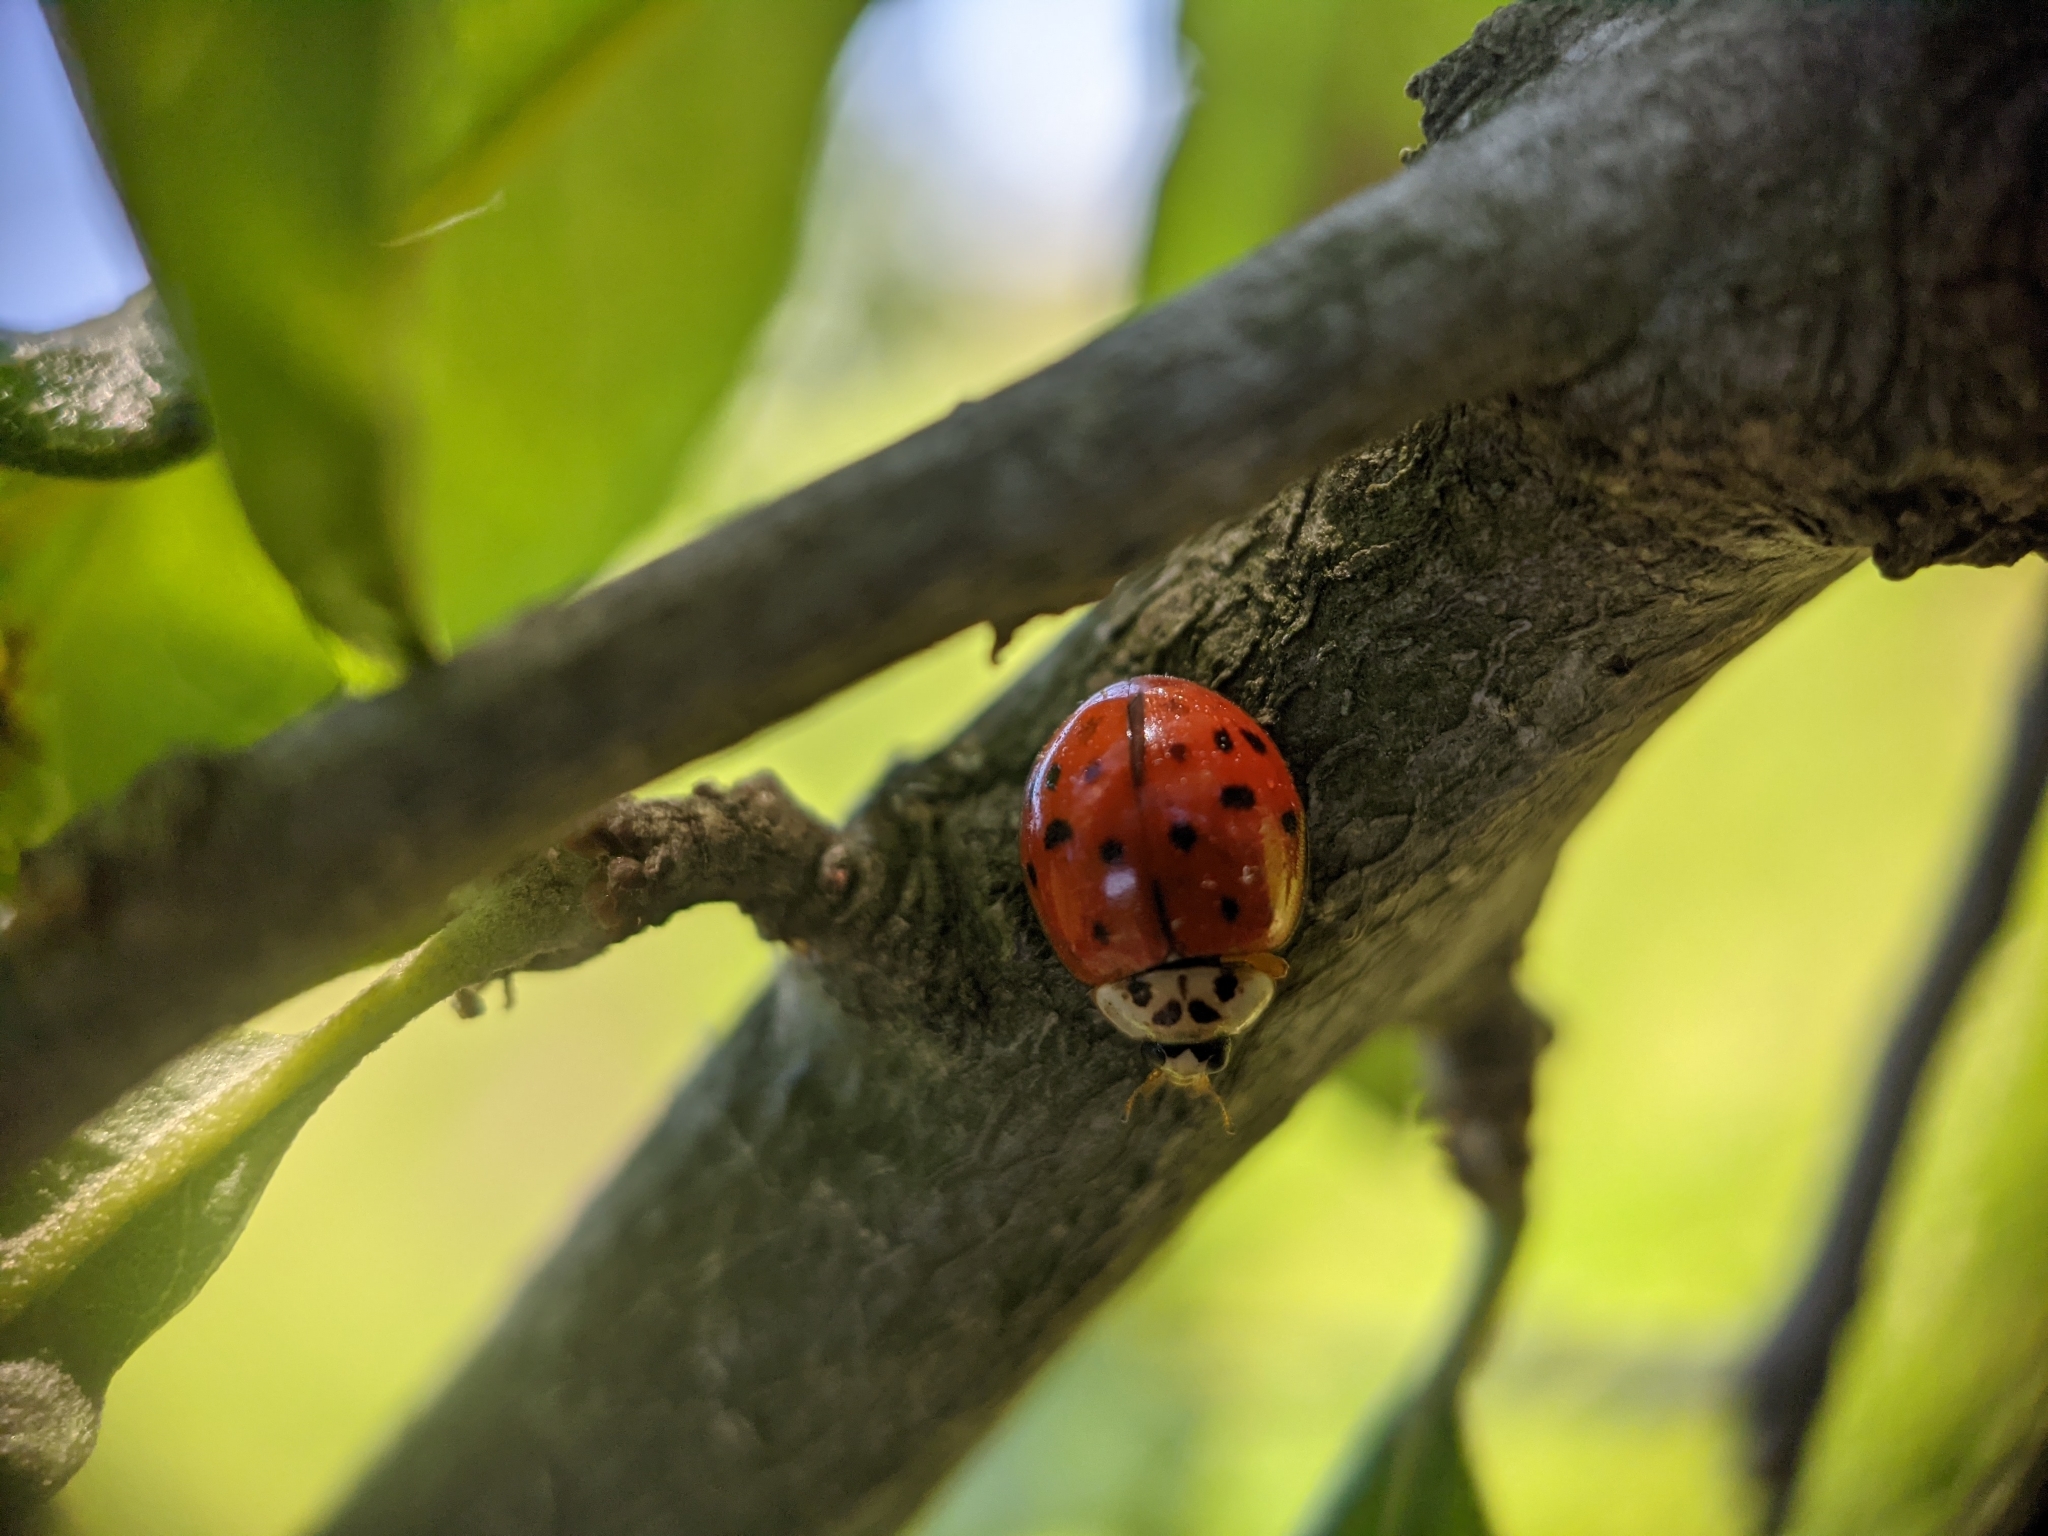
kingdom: Animalia
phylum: Arthropoda
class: Insecta
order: Coleoptera
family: Coccinellidae
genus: Harmonia
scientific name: Harmonia axyridis
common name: Harlequin ladybird
